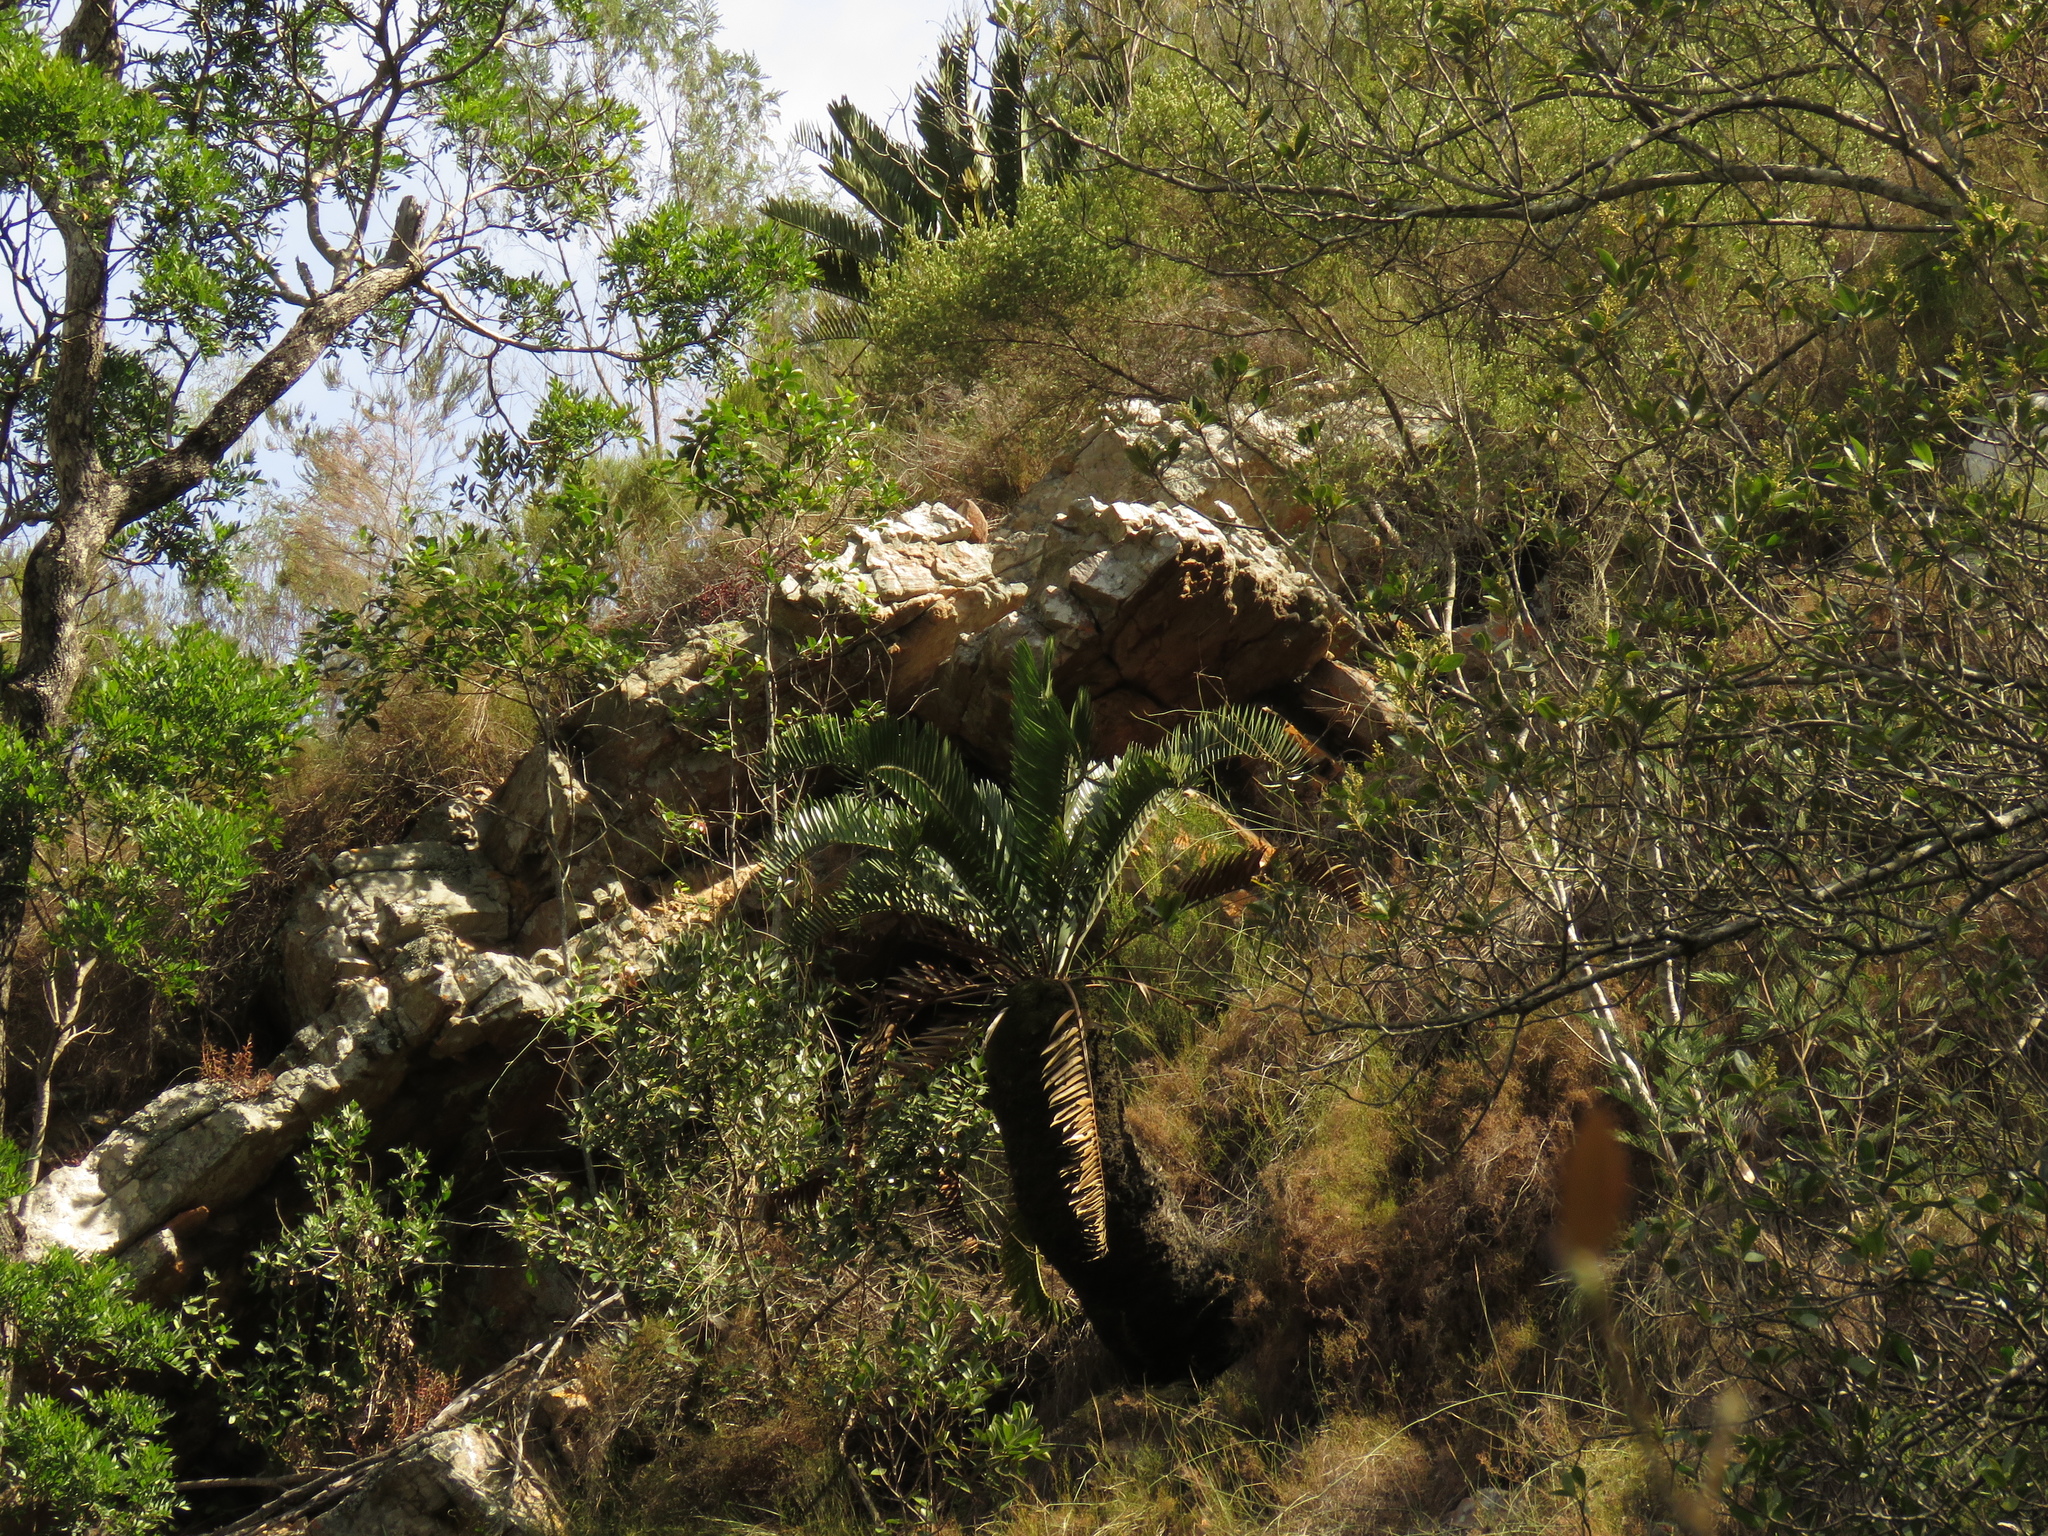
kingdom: Plantae
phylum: Tracheophyta
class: Cycadopsida
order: Cycadales
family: Zamiaceae
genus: Encephalartos
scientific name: Encephalartos longifolius
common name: Suurberg cycad
